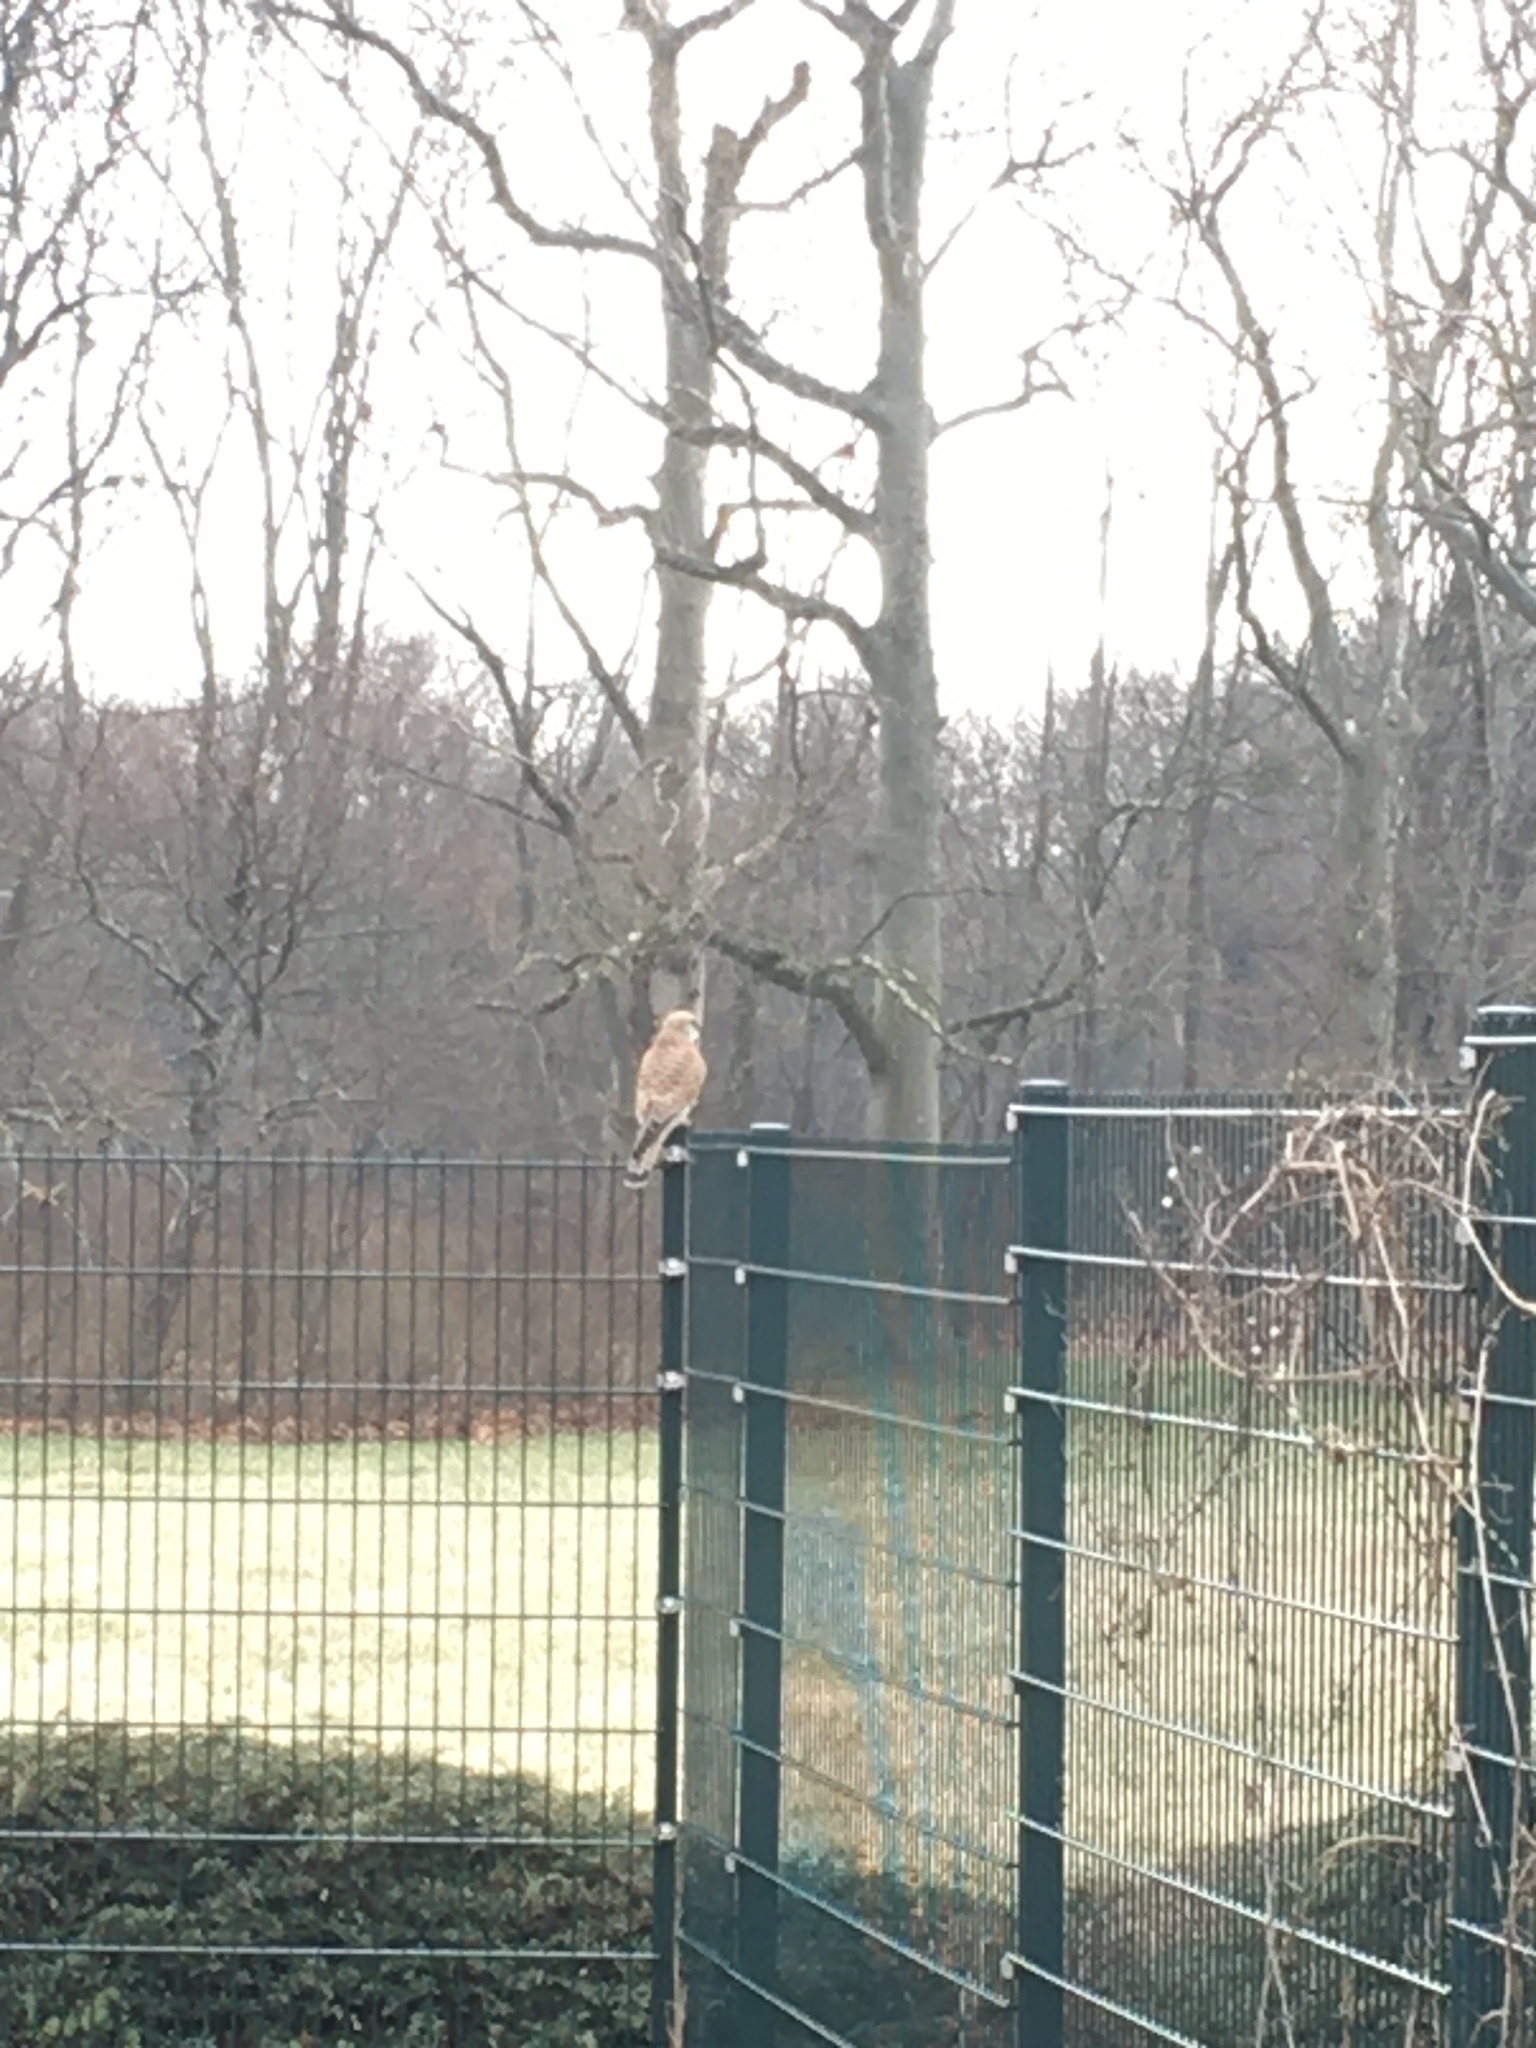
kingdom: Animalia
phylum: Chordata
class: Aves
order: Falconiformes
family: Falconidae
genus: Falco
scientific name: Falco tinnunculus
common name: Common kestrel
